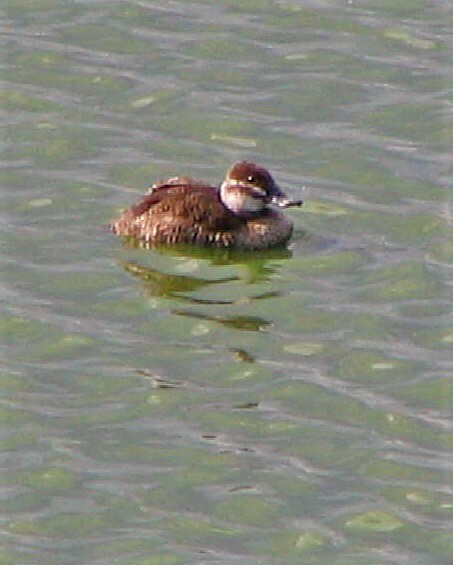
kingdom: Animalia
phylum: Chordata
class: Aves
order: Anseriformes
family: Anatidae
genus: Oxyura
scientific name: Oxyura vittata
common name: Lake duck
